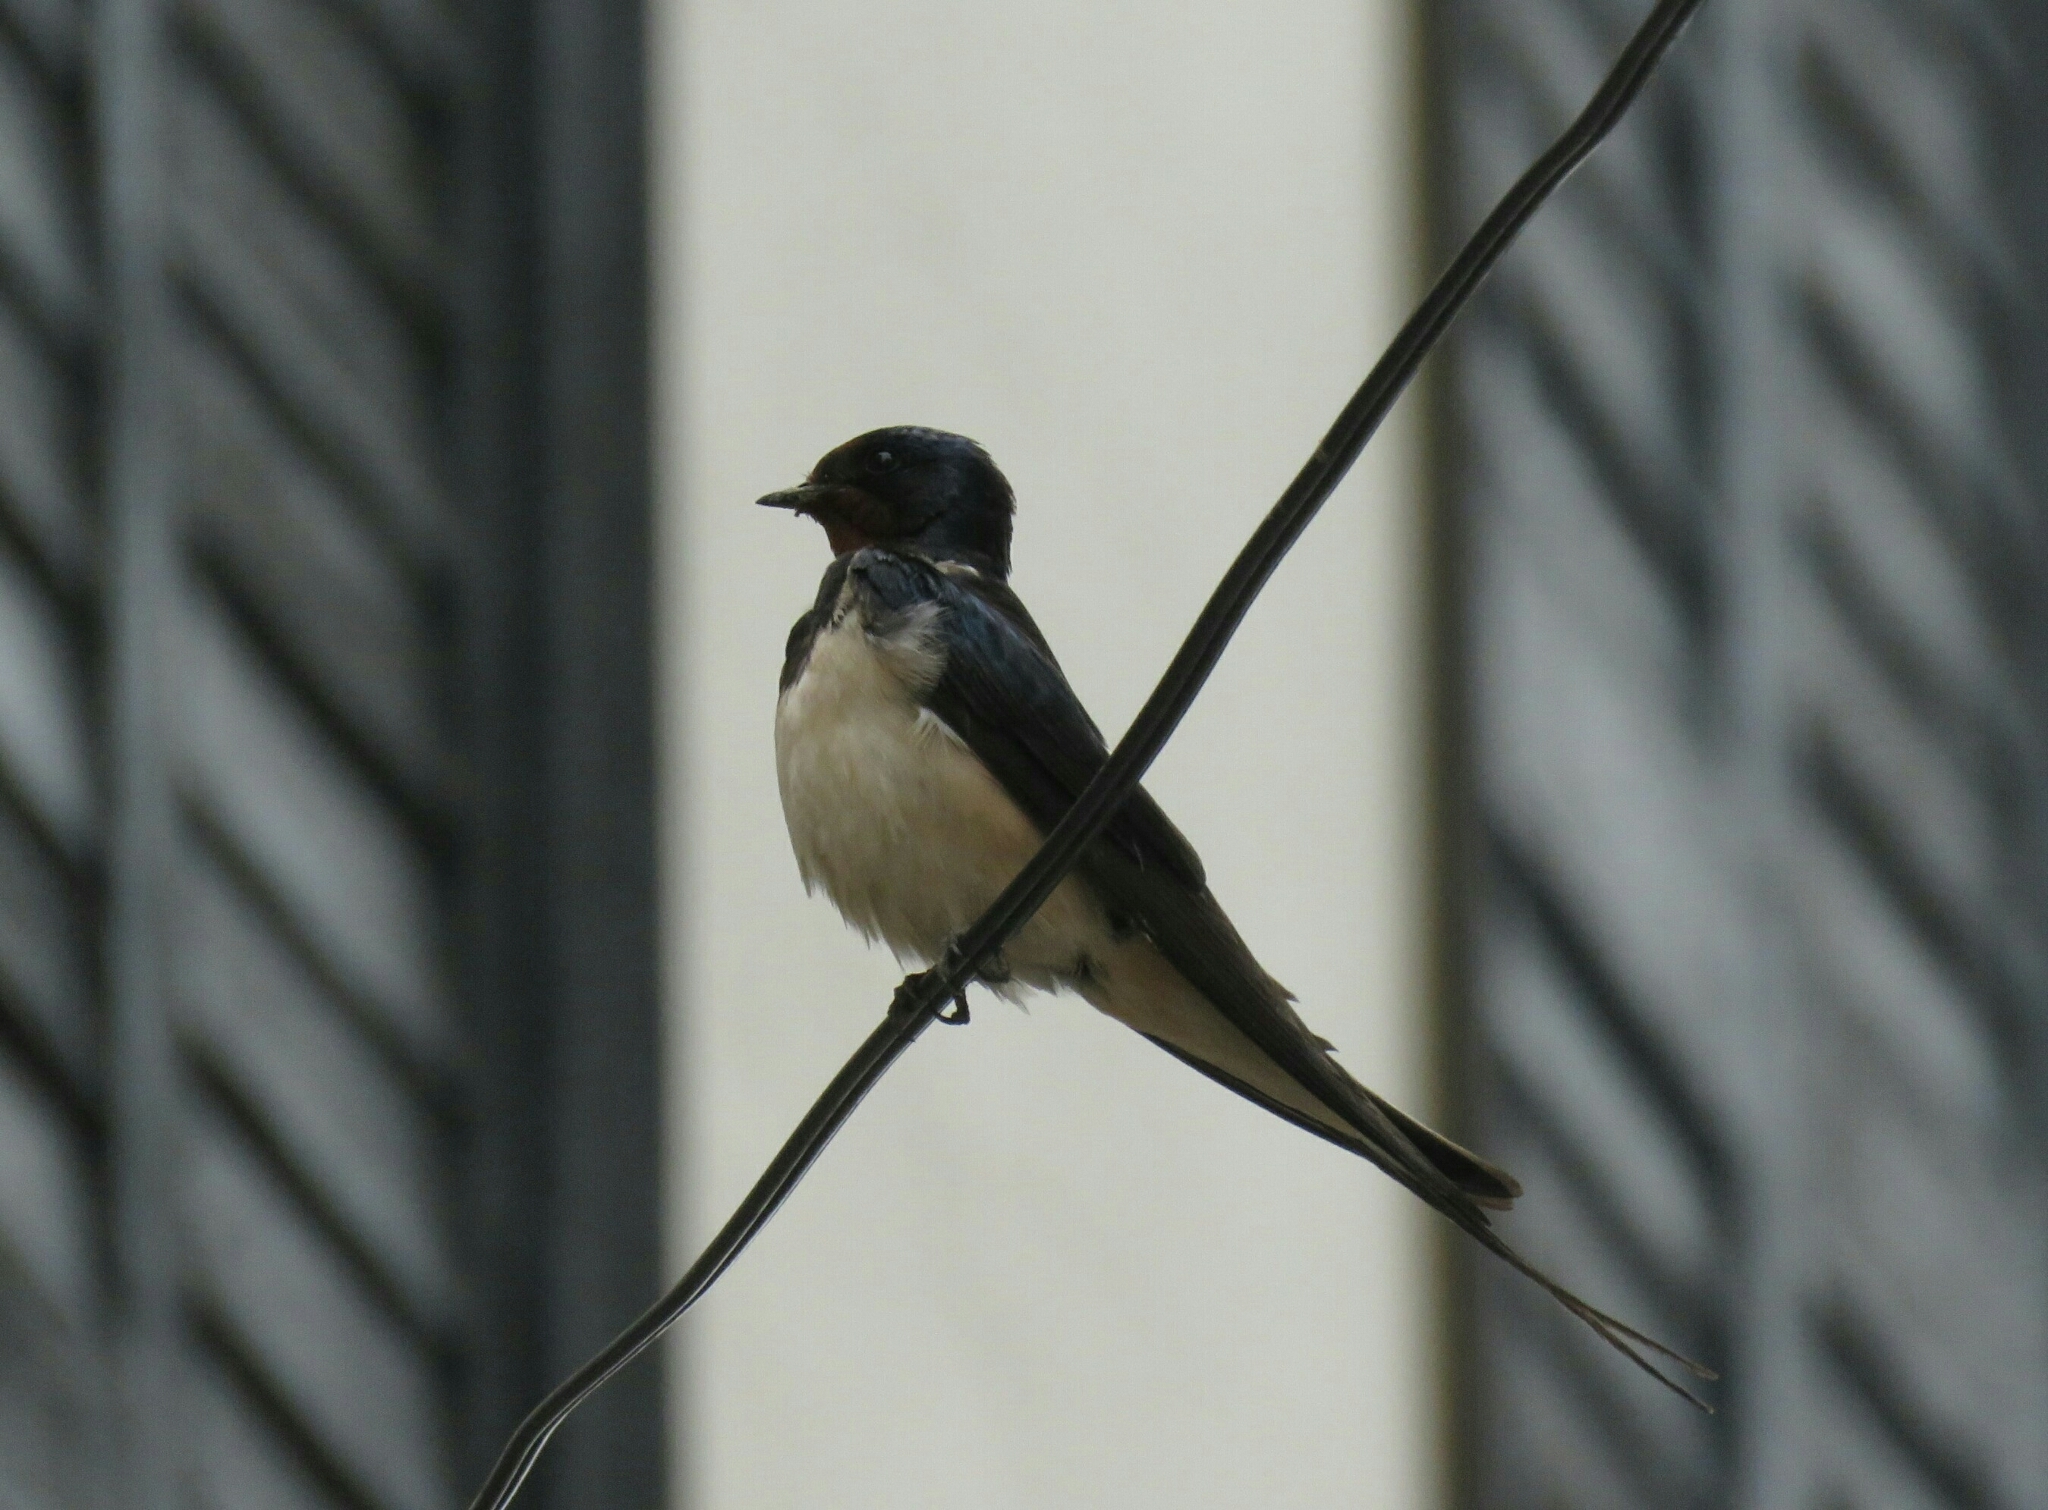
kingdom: Animalia
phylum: Chordata
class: Aves
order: Passeriformes
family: Hirundinidae
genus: Hirundo
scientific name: Hirundo rustica
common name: Barn swallow
